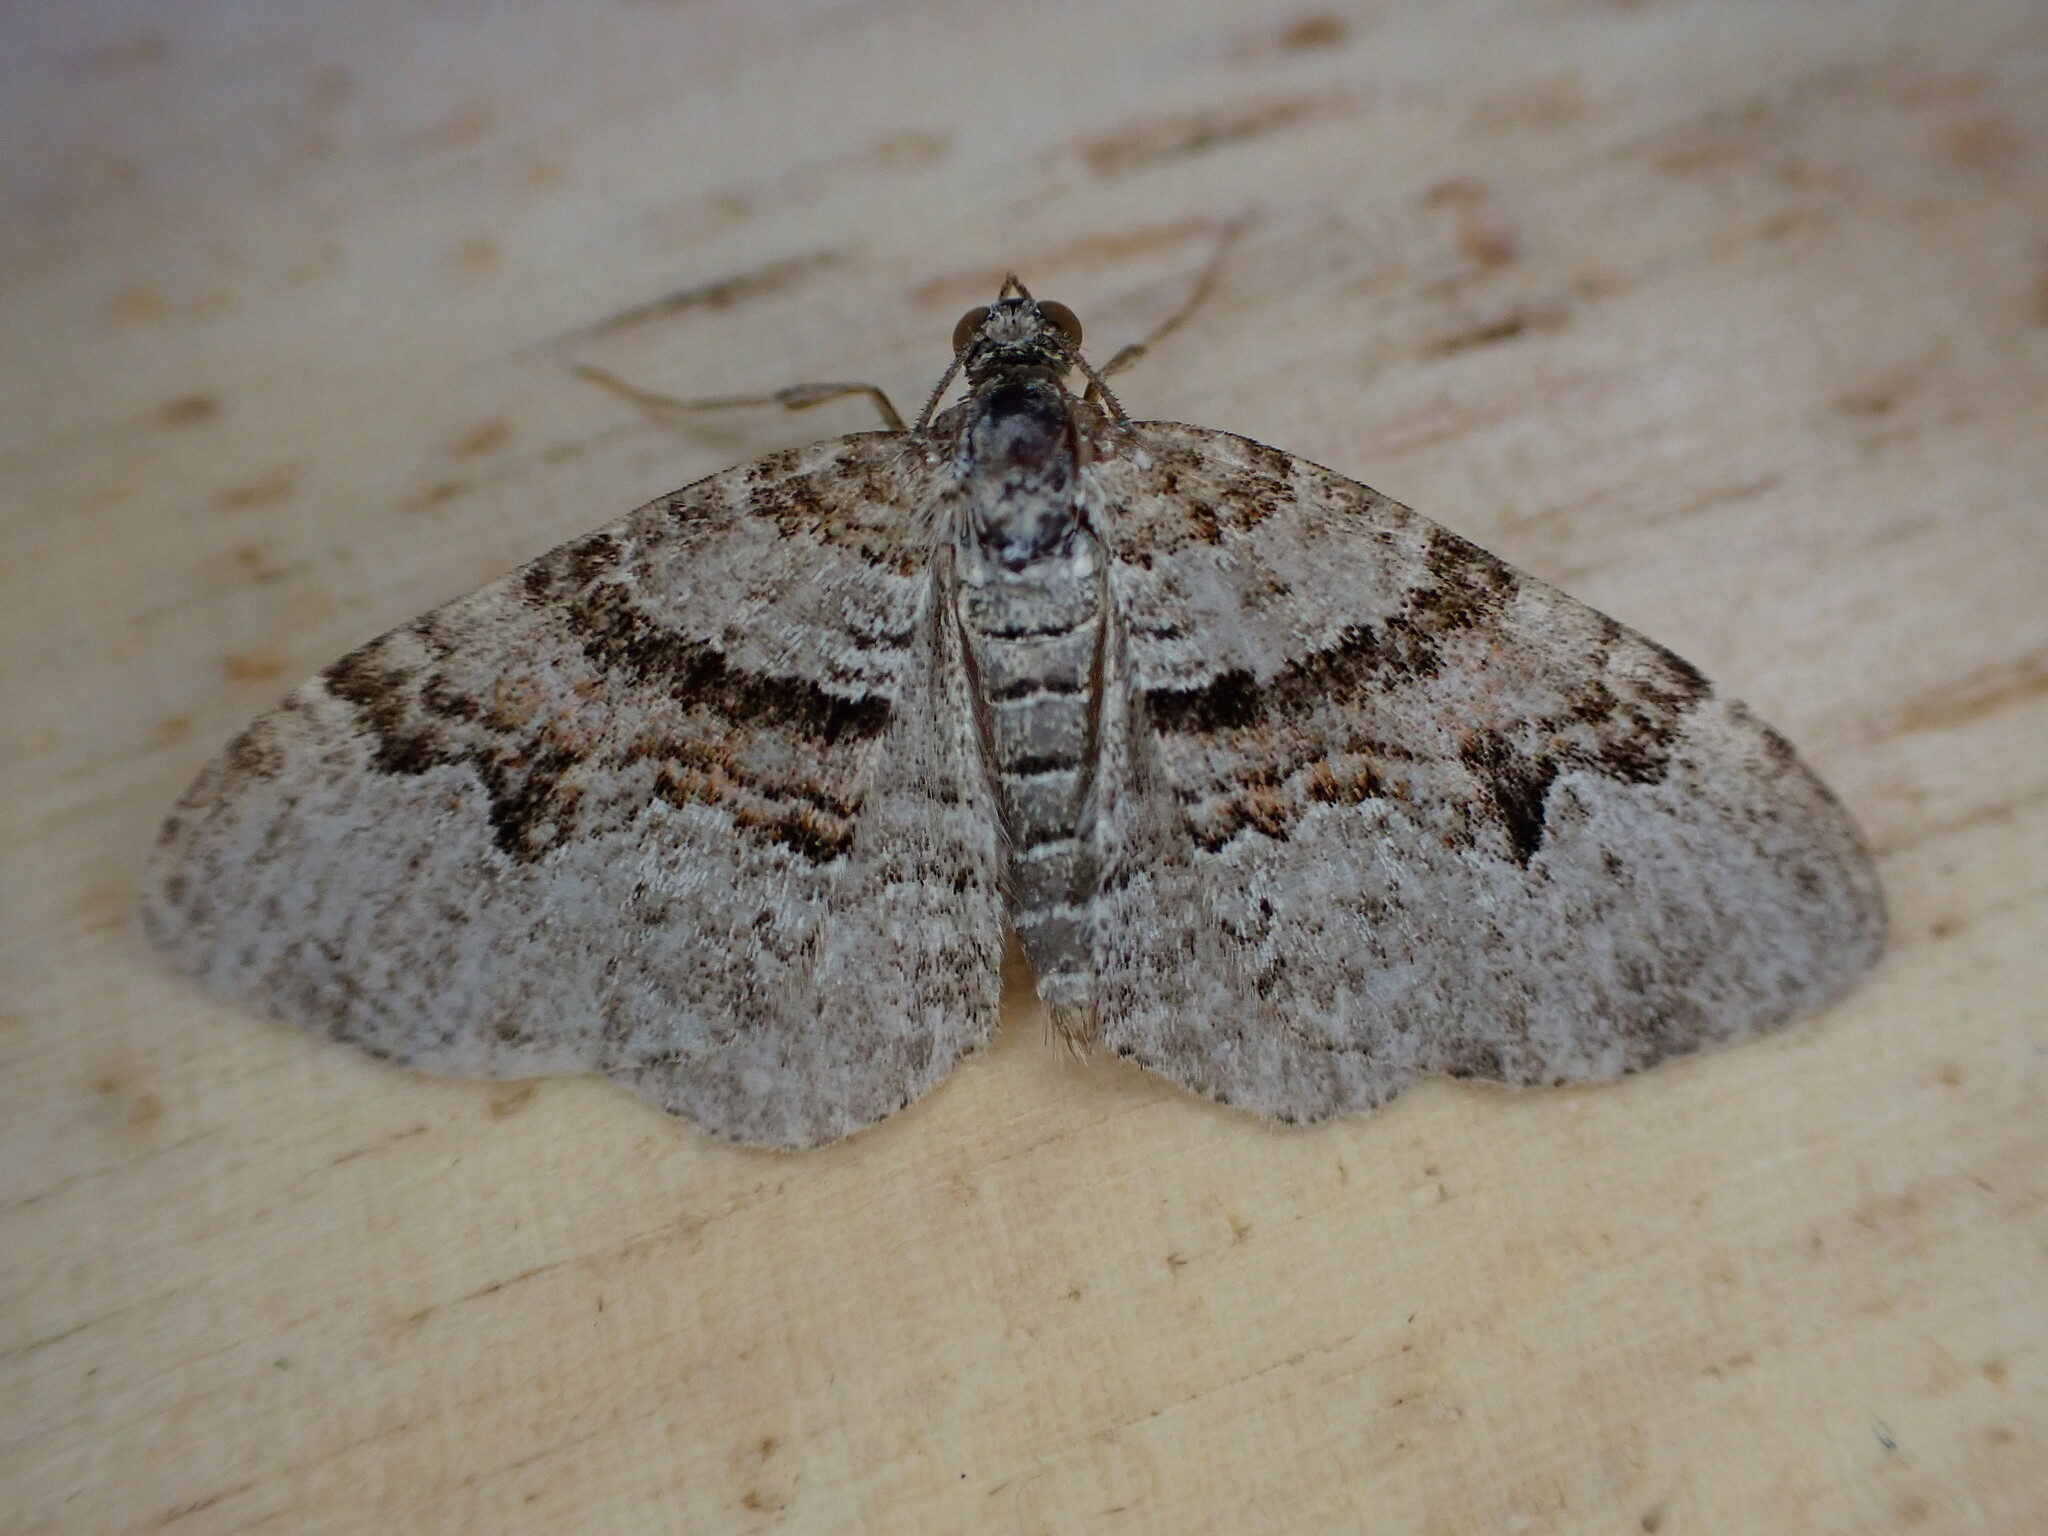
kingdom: Animalia
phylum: Arthropoda
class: Insecta
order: Lepidoptera
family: Geometridae
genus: Xanthorhoe
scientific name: Xanthorhoe designata
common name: Flame carpet
